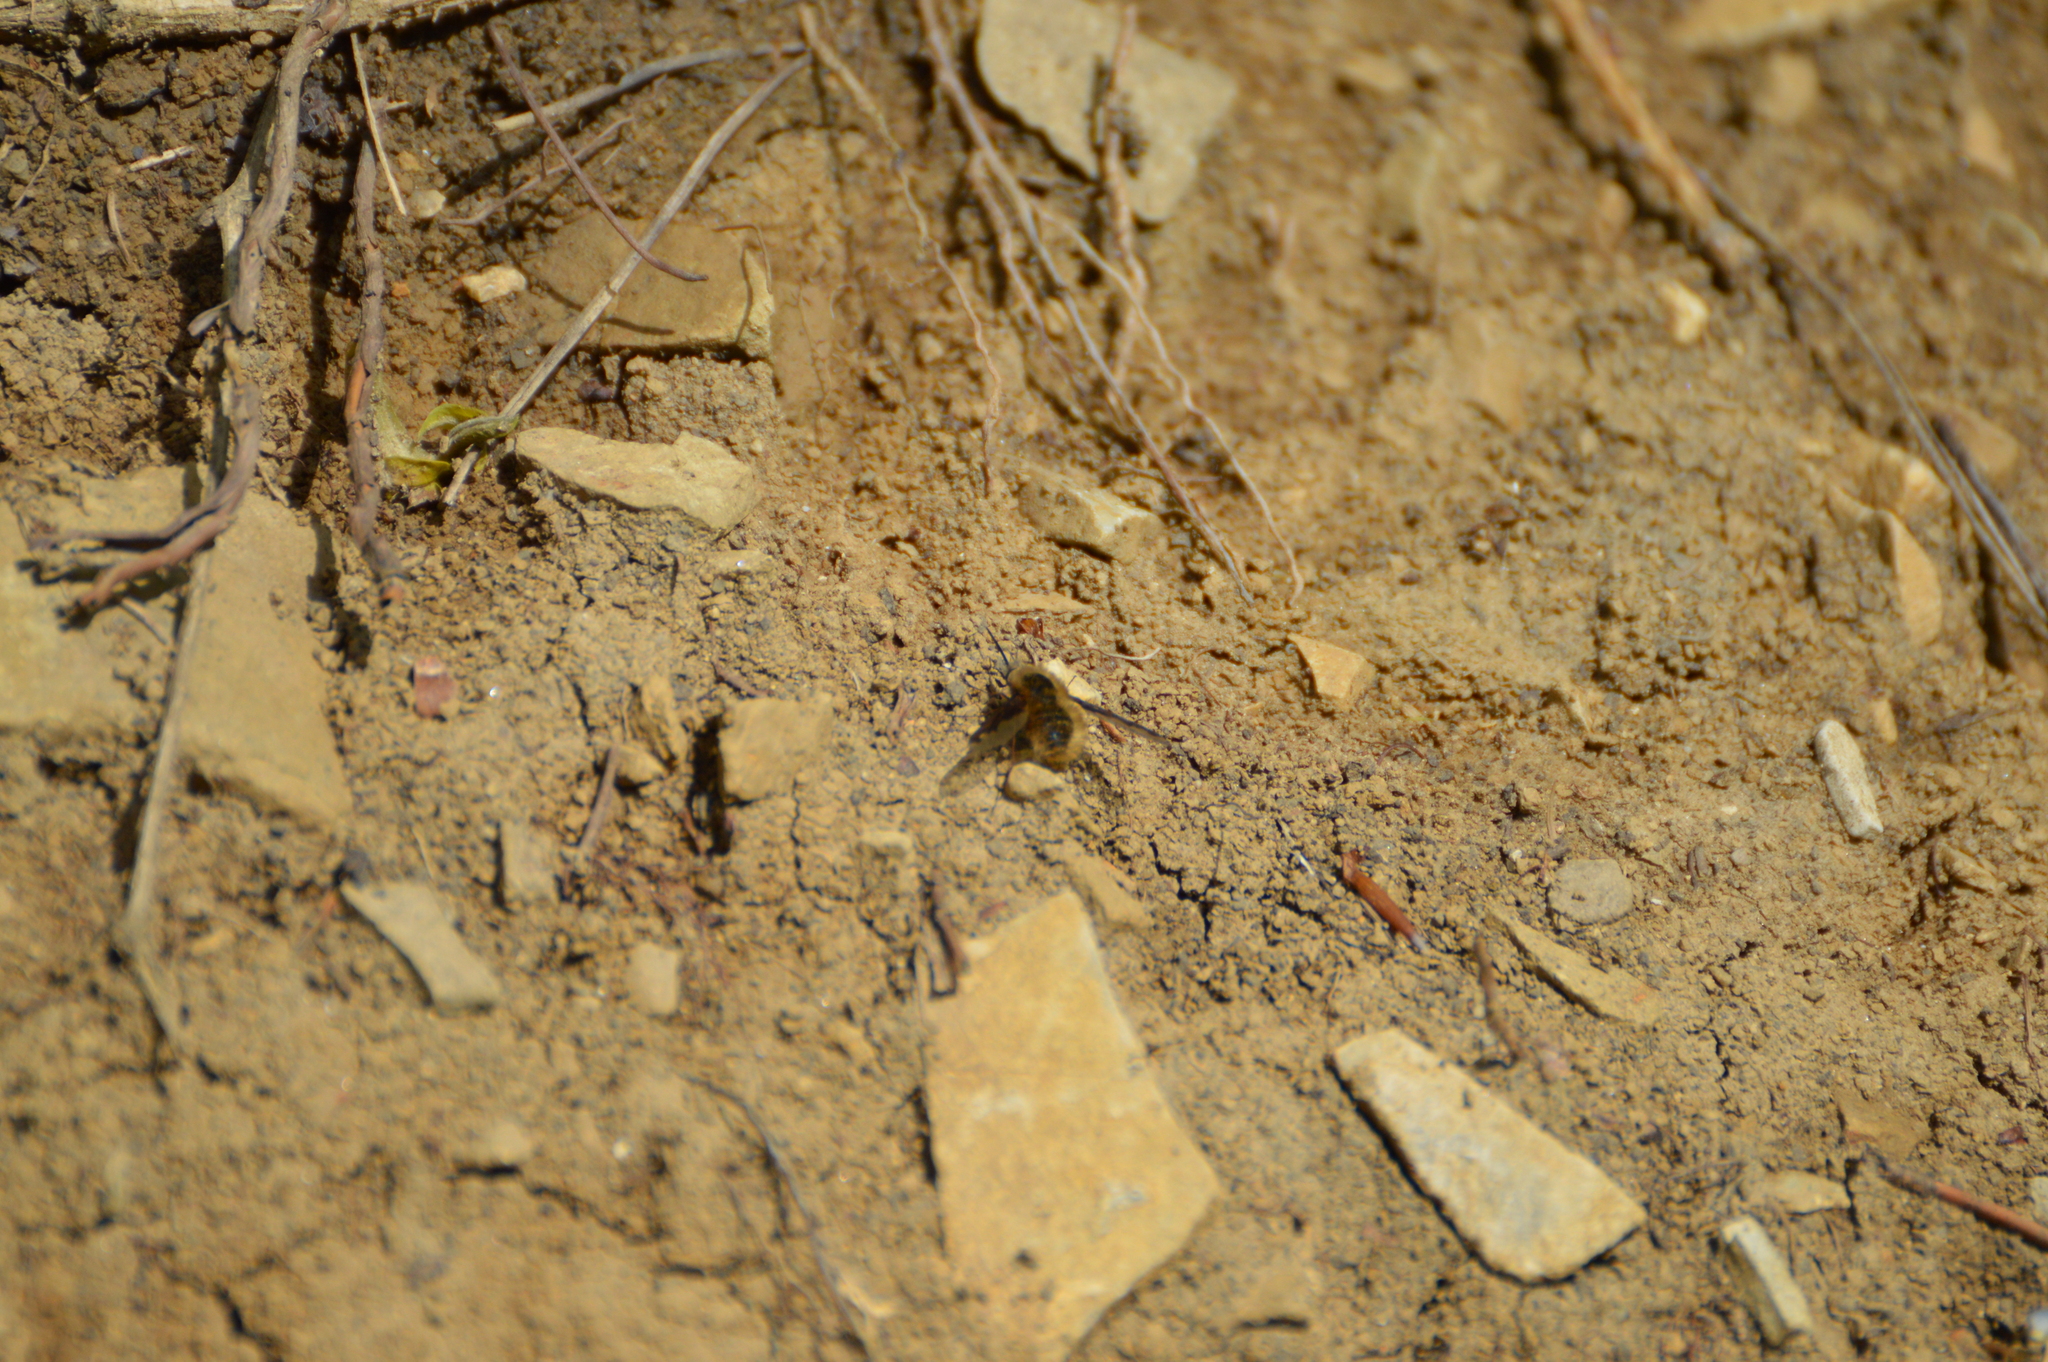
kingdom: Animalia
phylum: Arthropoda
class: Insecta
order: Diptera
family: Bombyliidae
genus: Bombylius
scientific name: Bombylius major
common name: Bee fly
